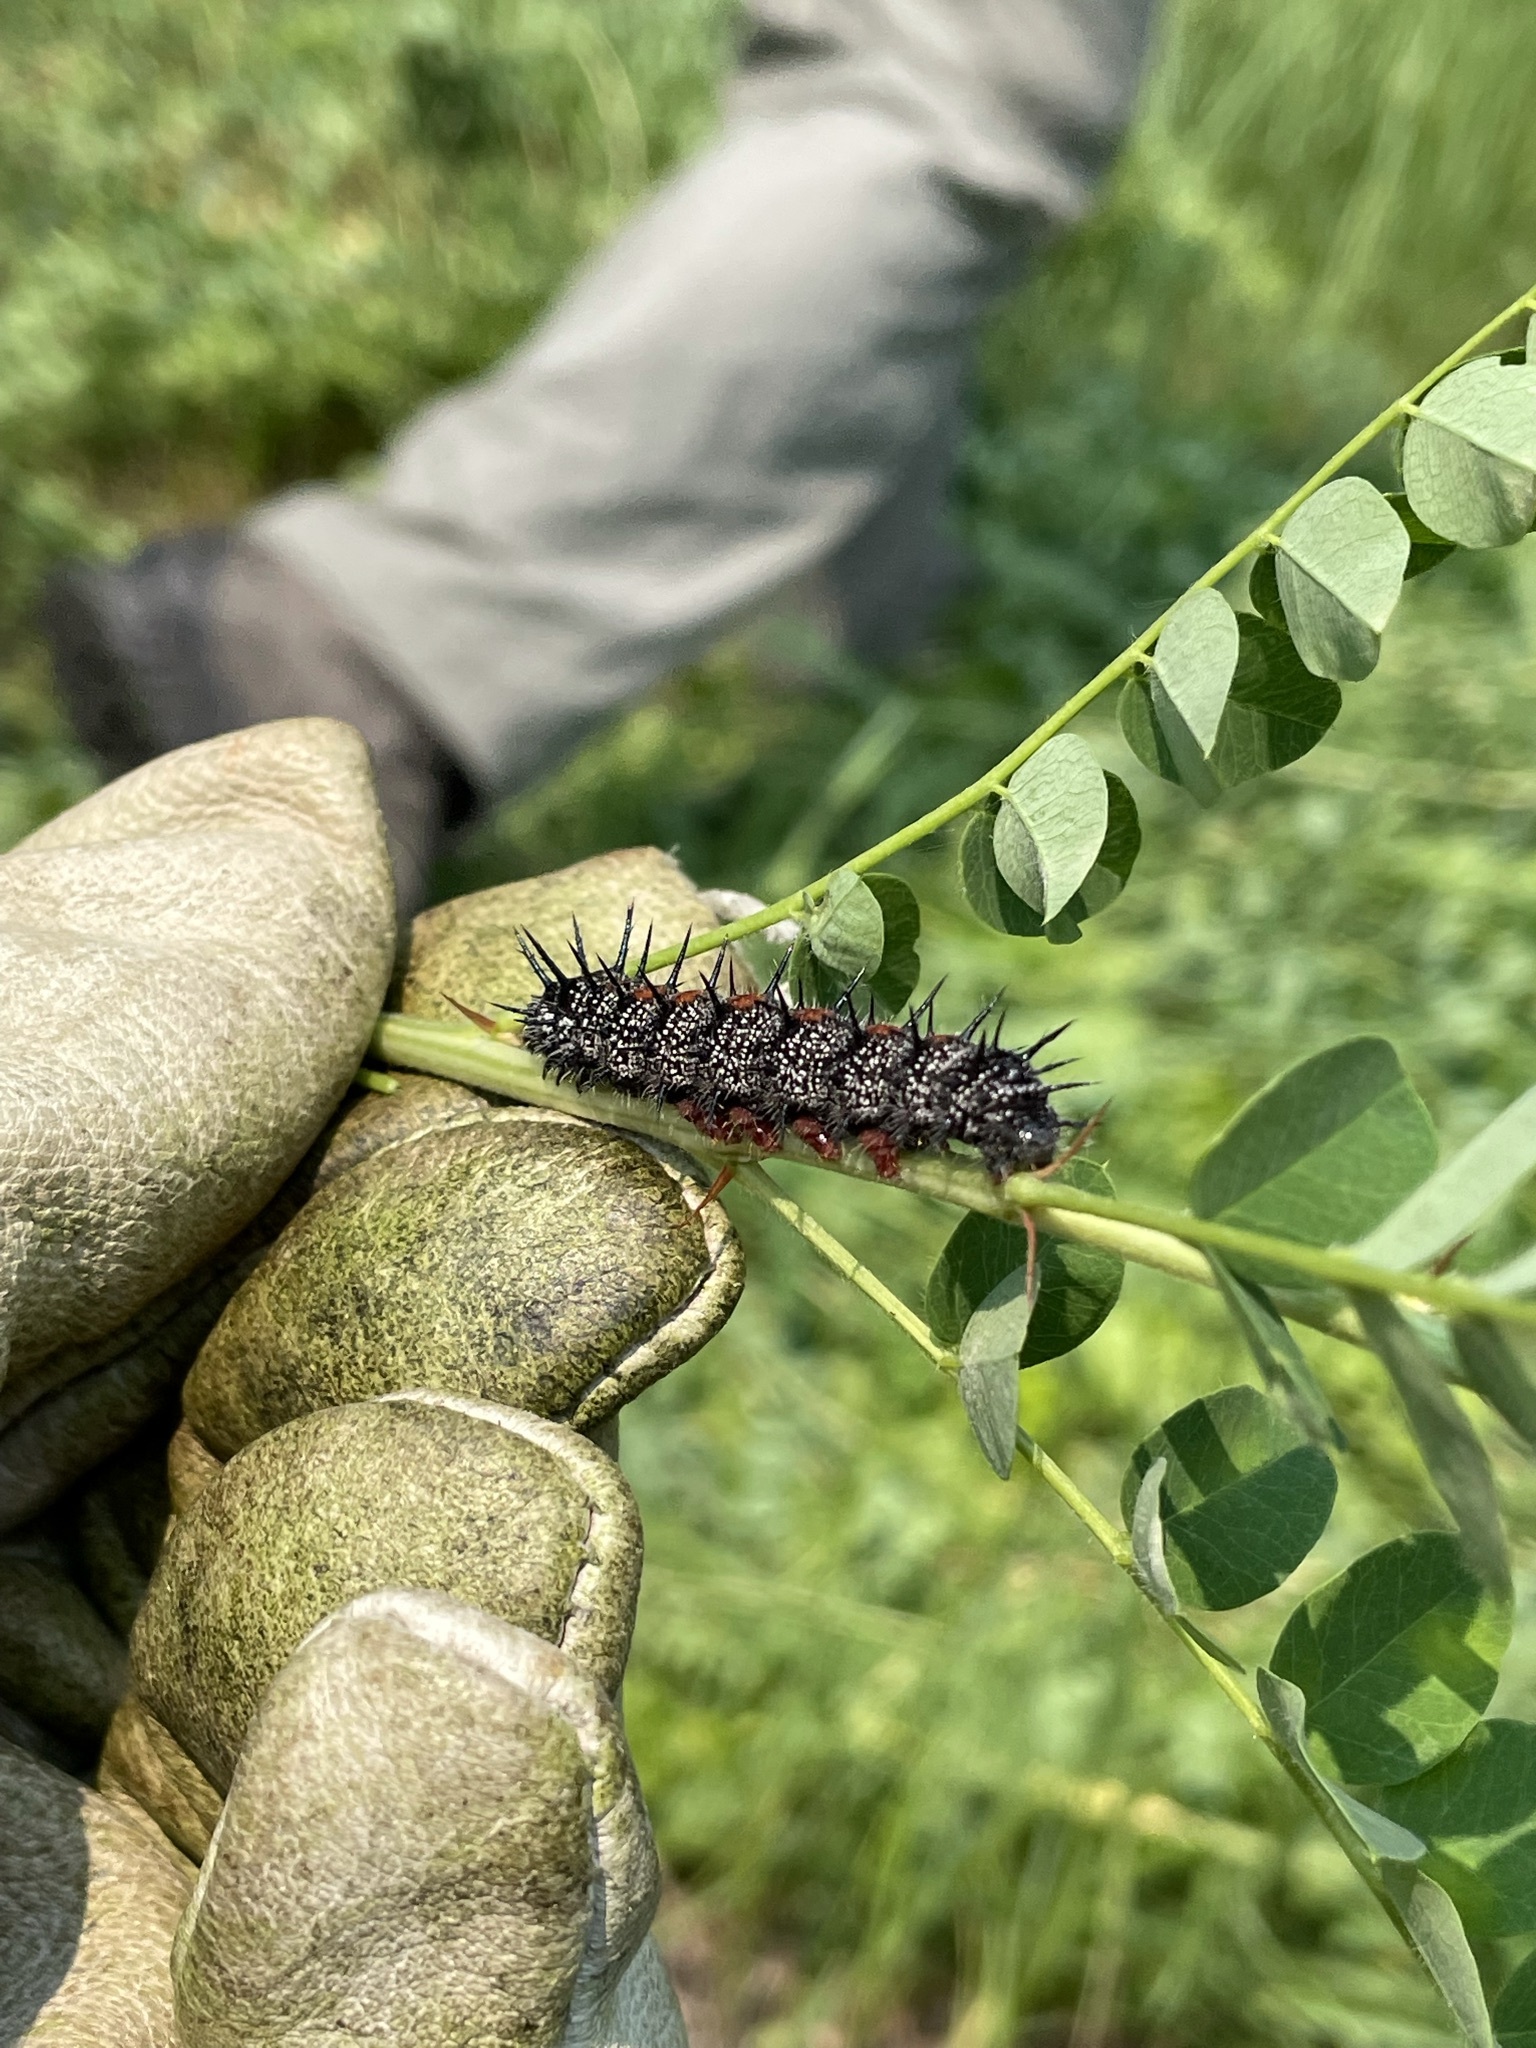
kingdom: Animalia
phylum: Arthropoda
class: Insecta
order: Lepidoptera
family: Nymphalidae
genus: Nymphalis
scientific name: Nymphalis antiopa
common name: Camberwell beauty
